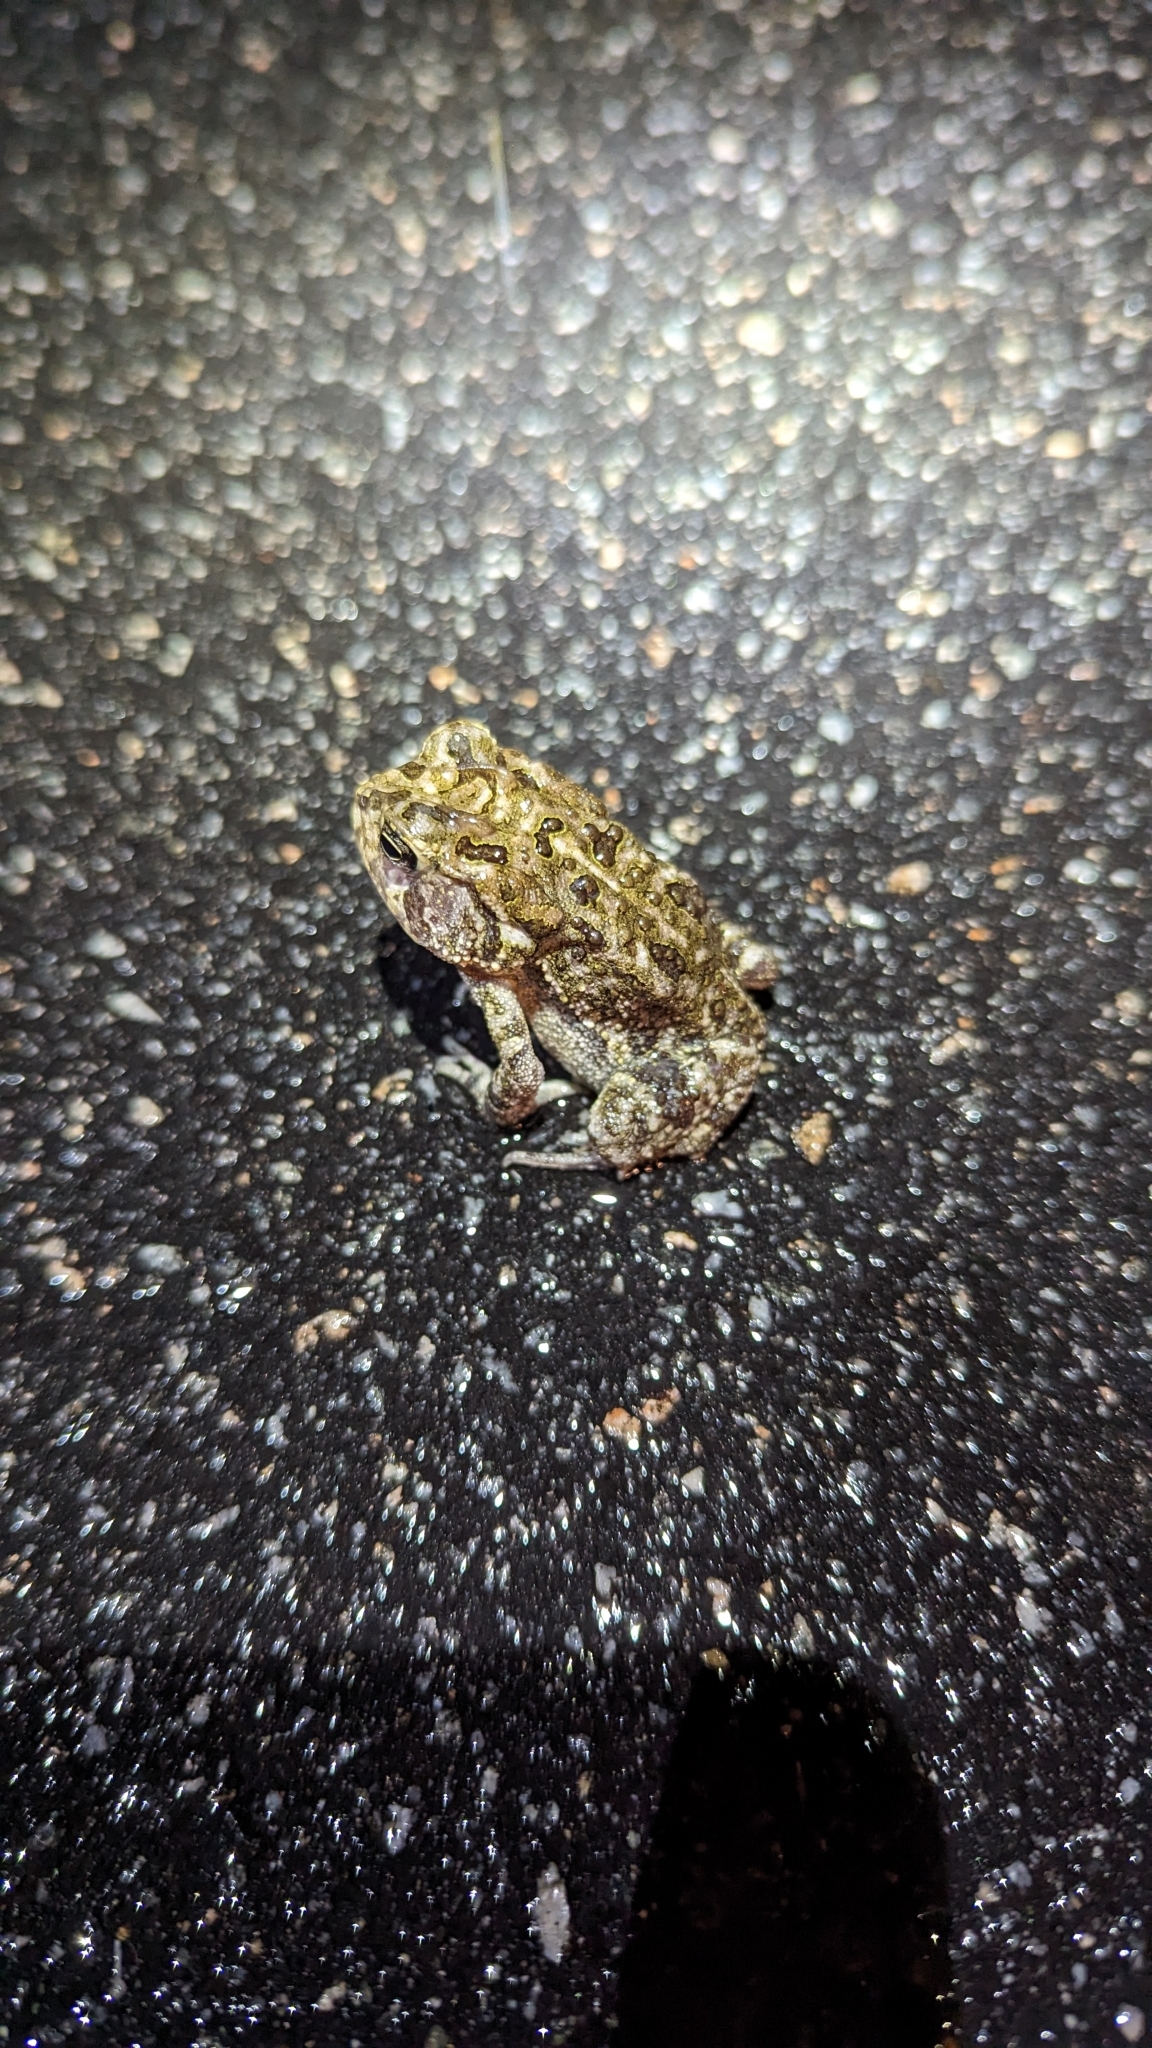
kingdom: Animalia
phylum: Chordata
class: Amphibia
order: Anura
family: Bufonidae
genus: Anaxyrus
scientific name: Anaxyrus terrestris
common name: Southern toad
